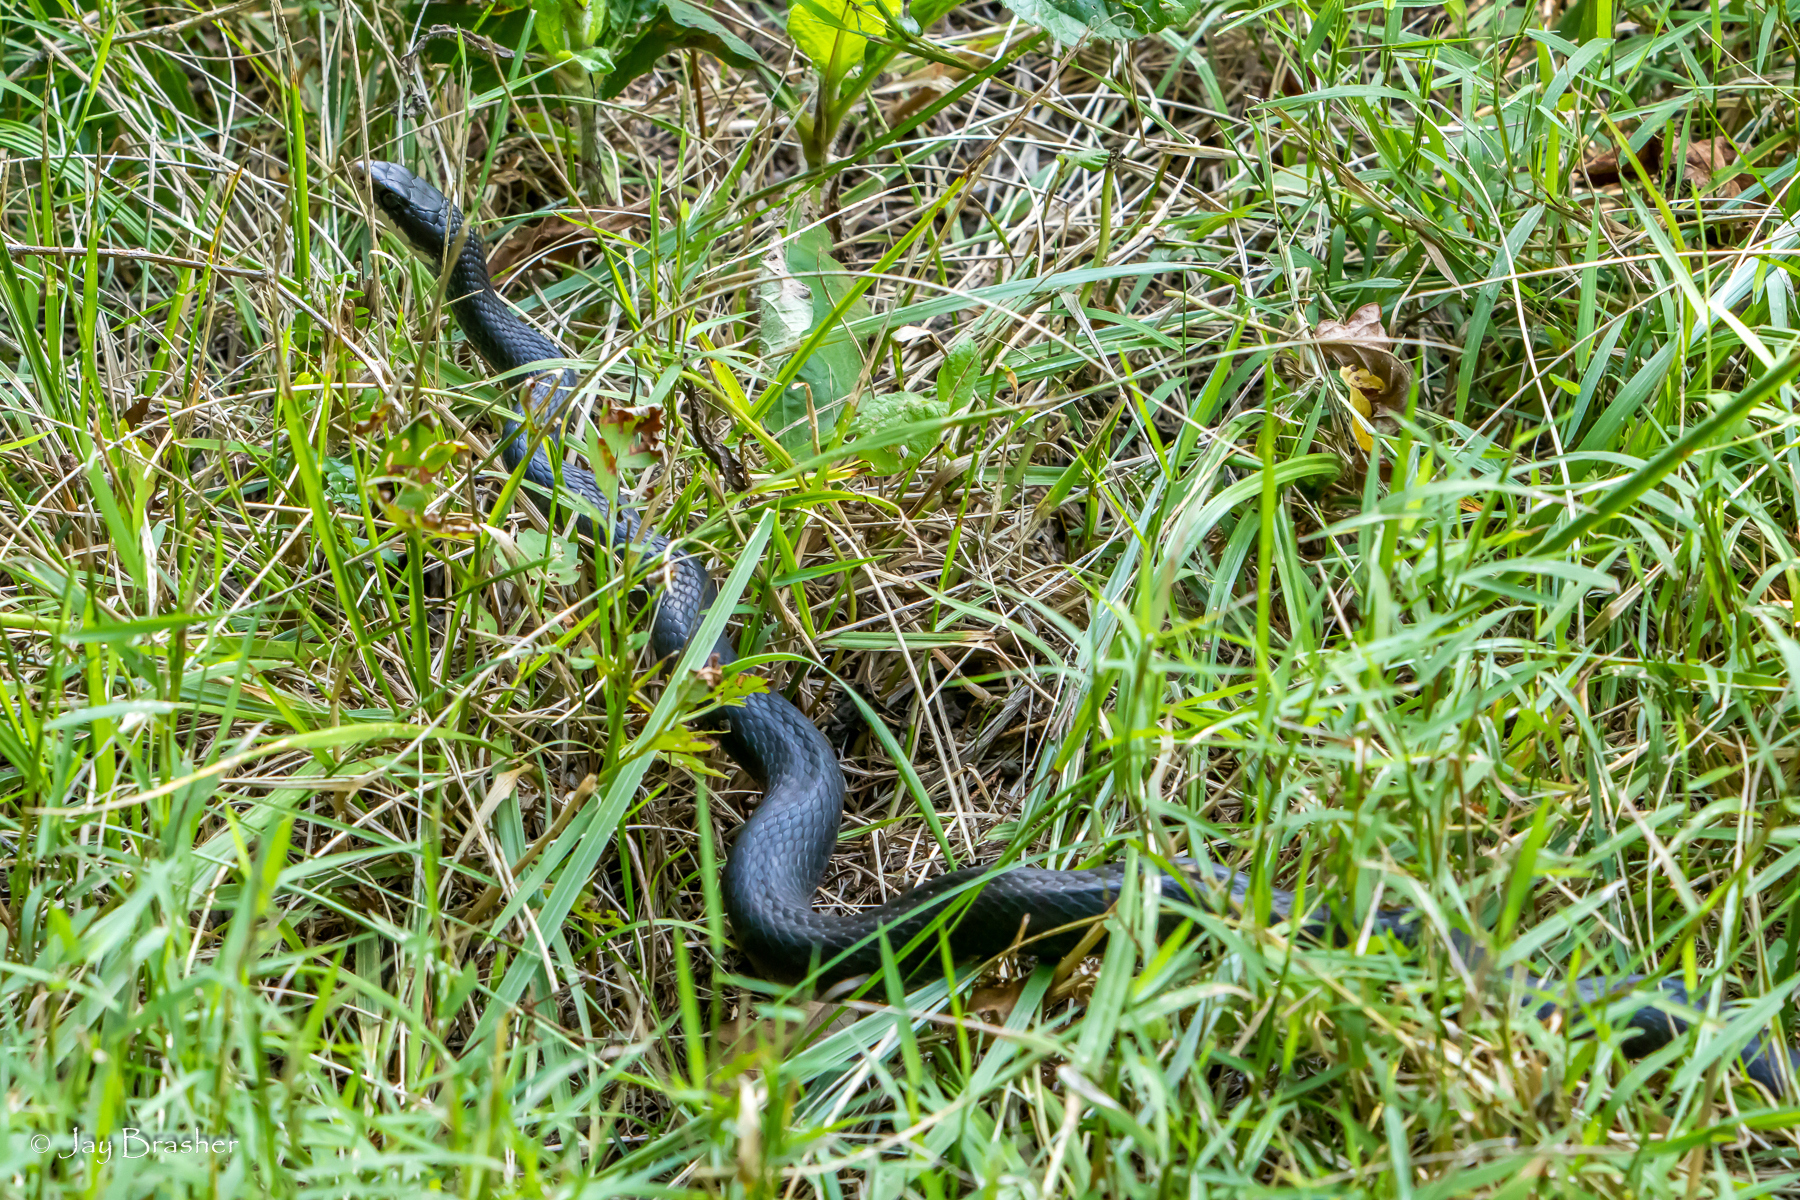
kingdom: Animalia
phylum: Chordata
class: Squamata
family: Colubridae
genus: Coluber
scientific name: Coluber constrictor
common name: Eastern racer
